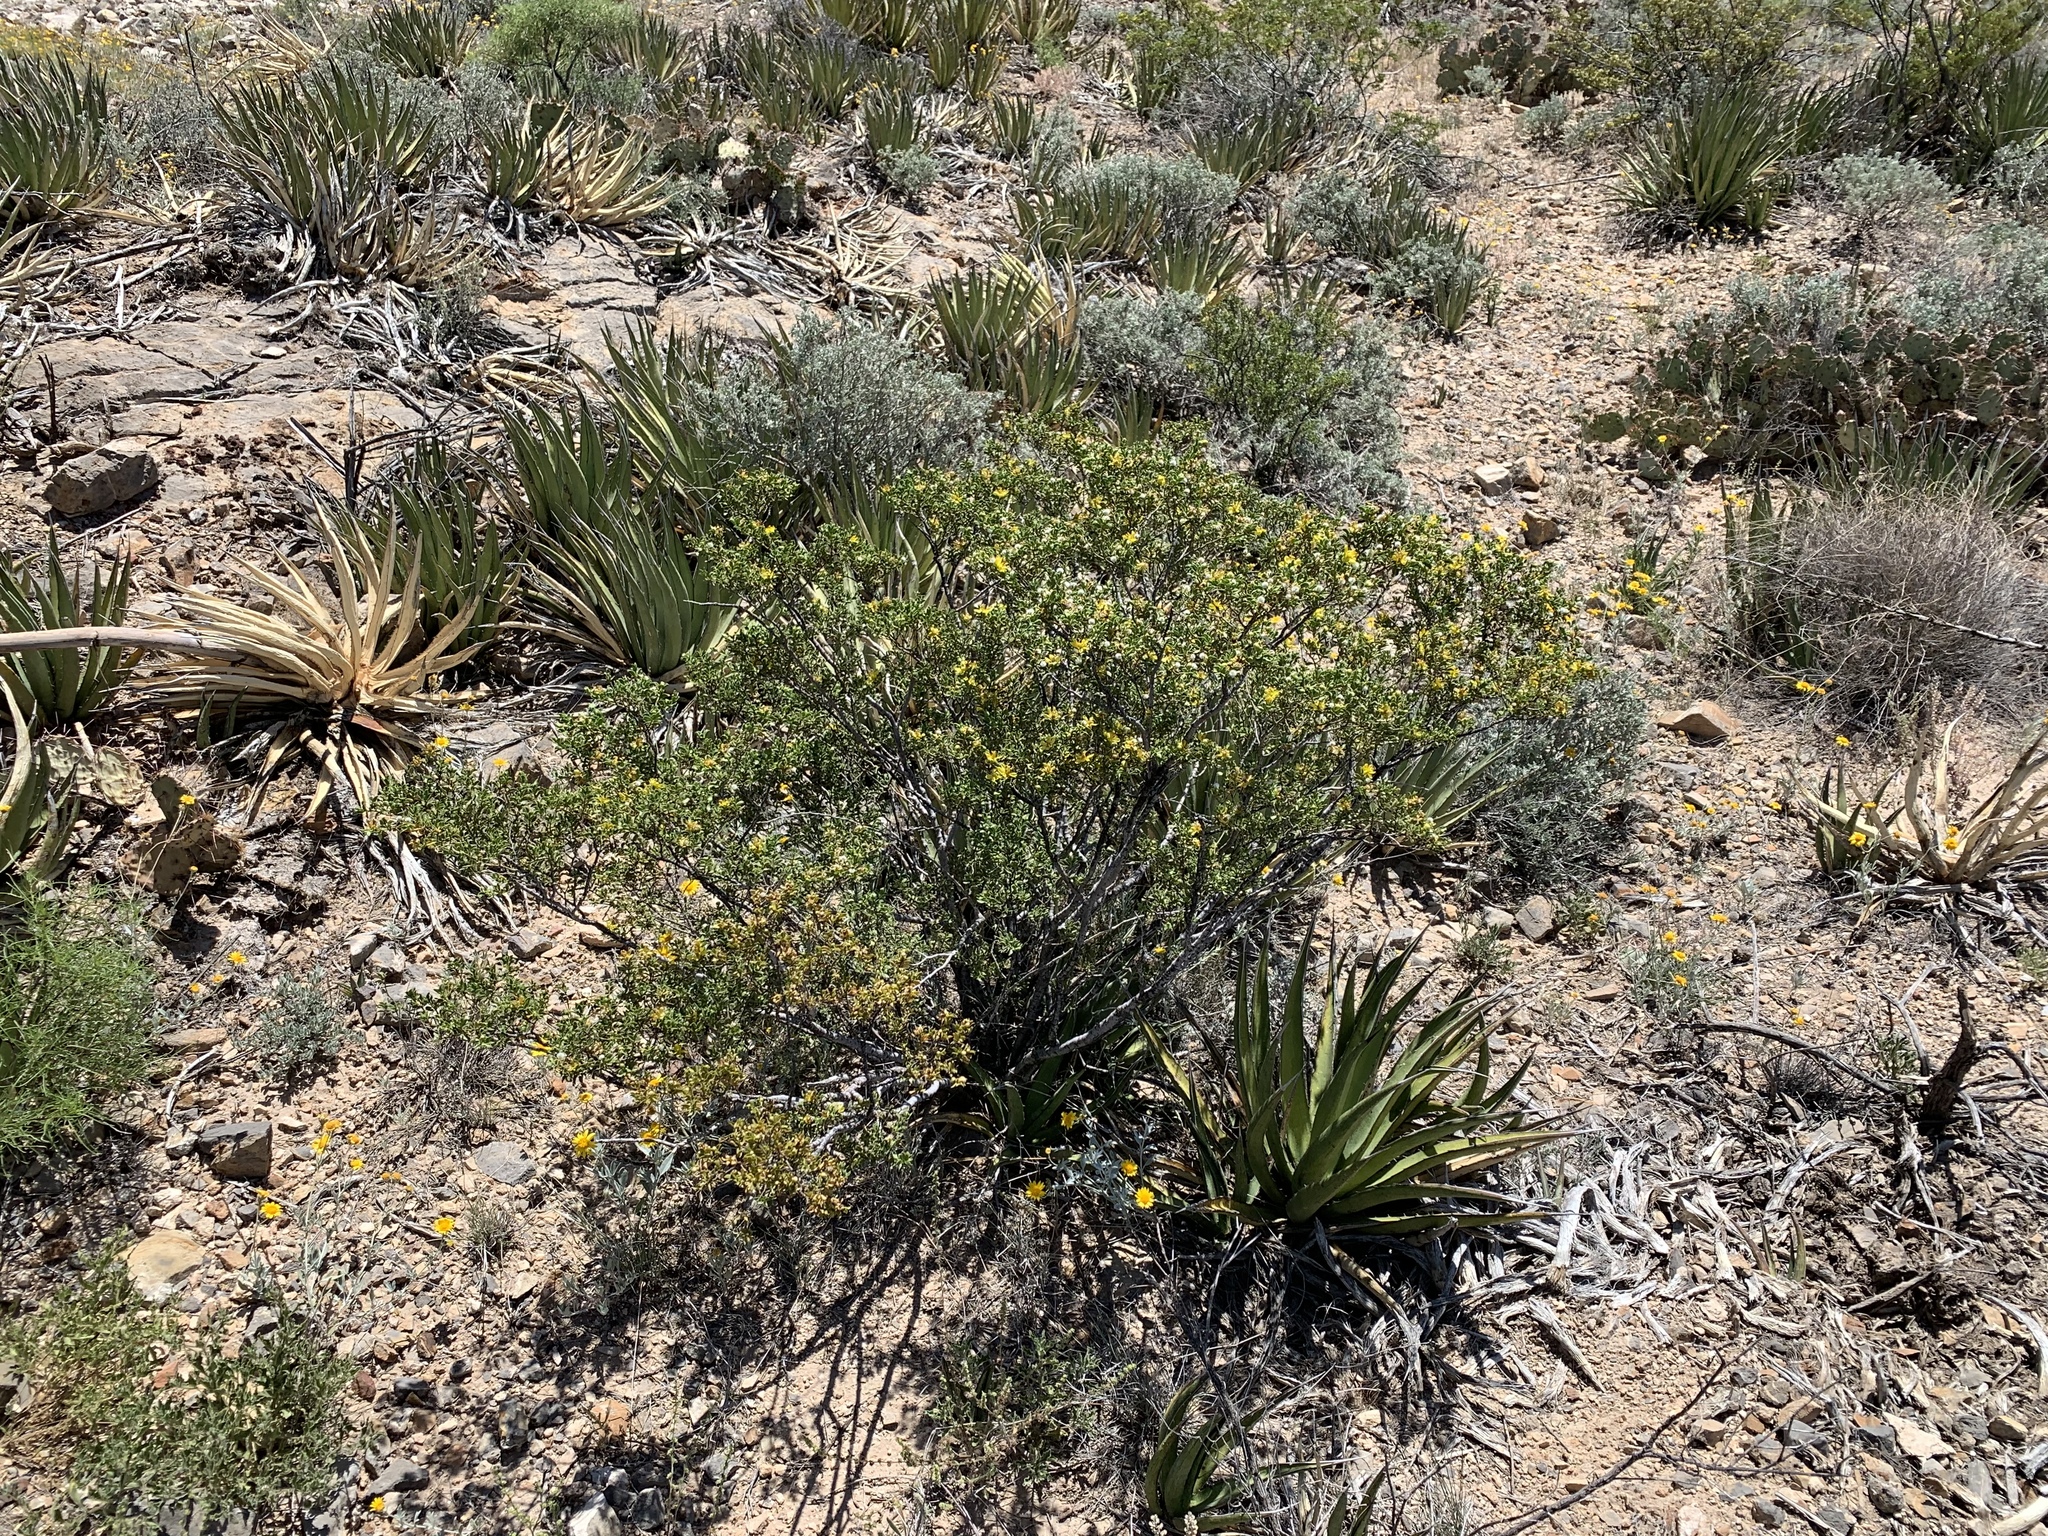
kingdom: Plantae
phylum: Tracheophyta
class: Magnoliopsida
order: Zygophyllales
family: Zygophyllaceae
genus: Larrea
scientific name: Larrea tridentata
